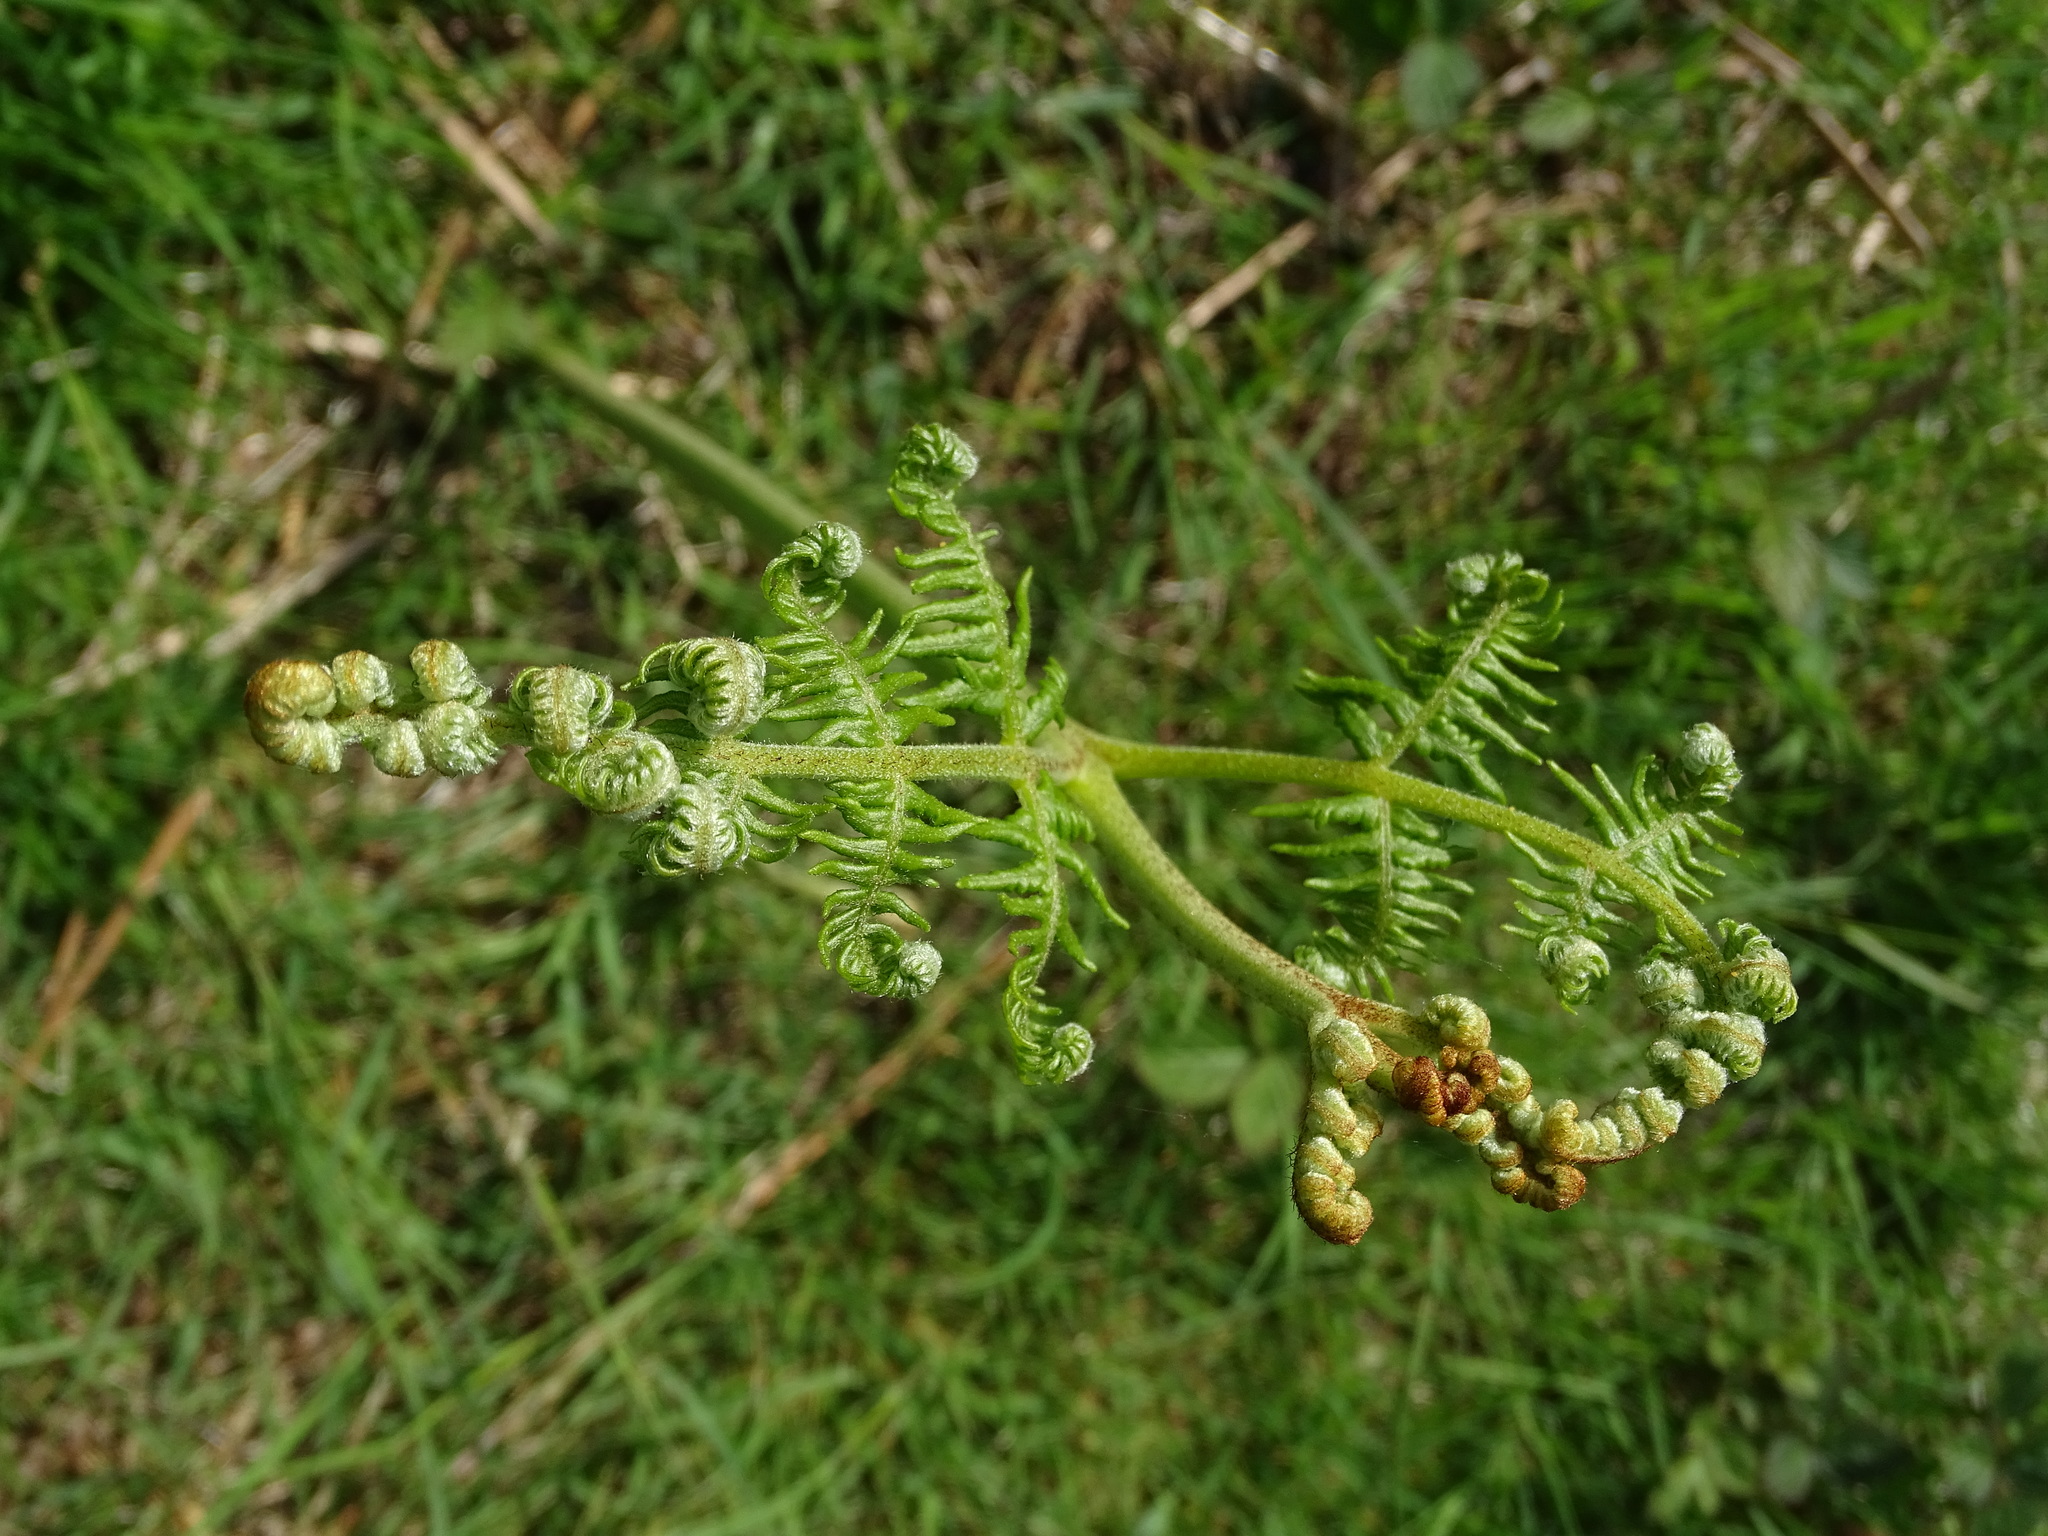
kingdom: Plantae
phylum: Tracheophyta
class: Polypodiopsida
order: Polypodiales
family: Dennstaedtiaceae
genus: Pteridium
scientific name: Pteridium aquilinum
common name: Bracken
